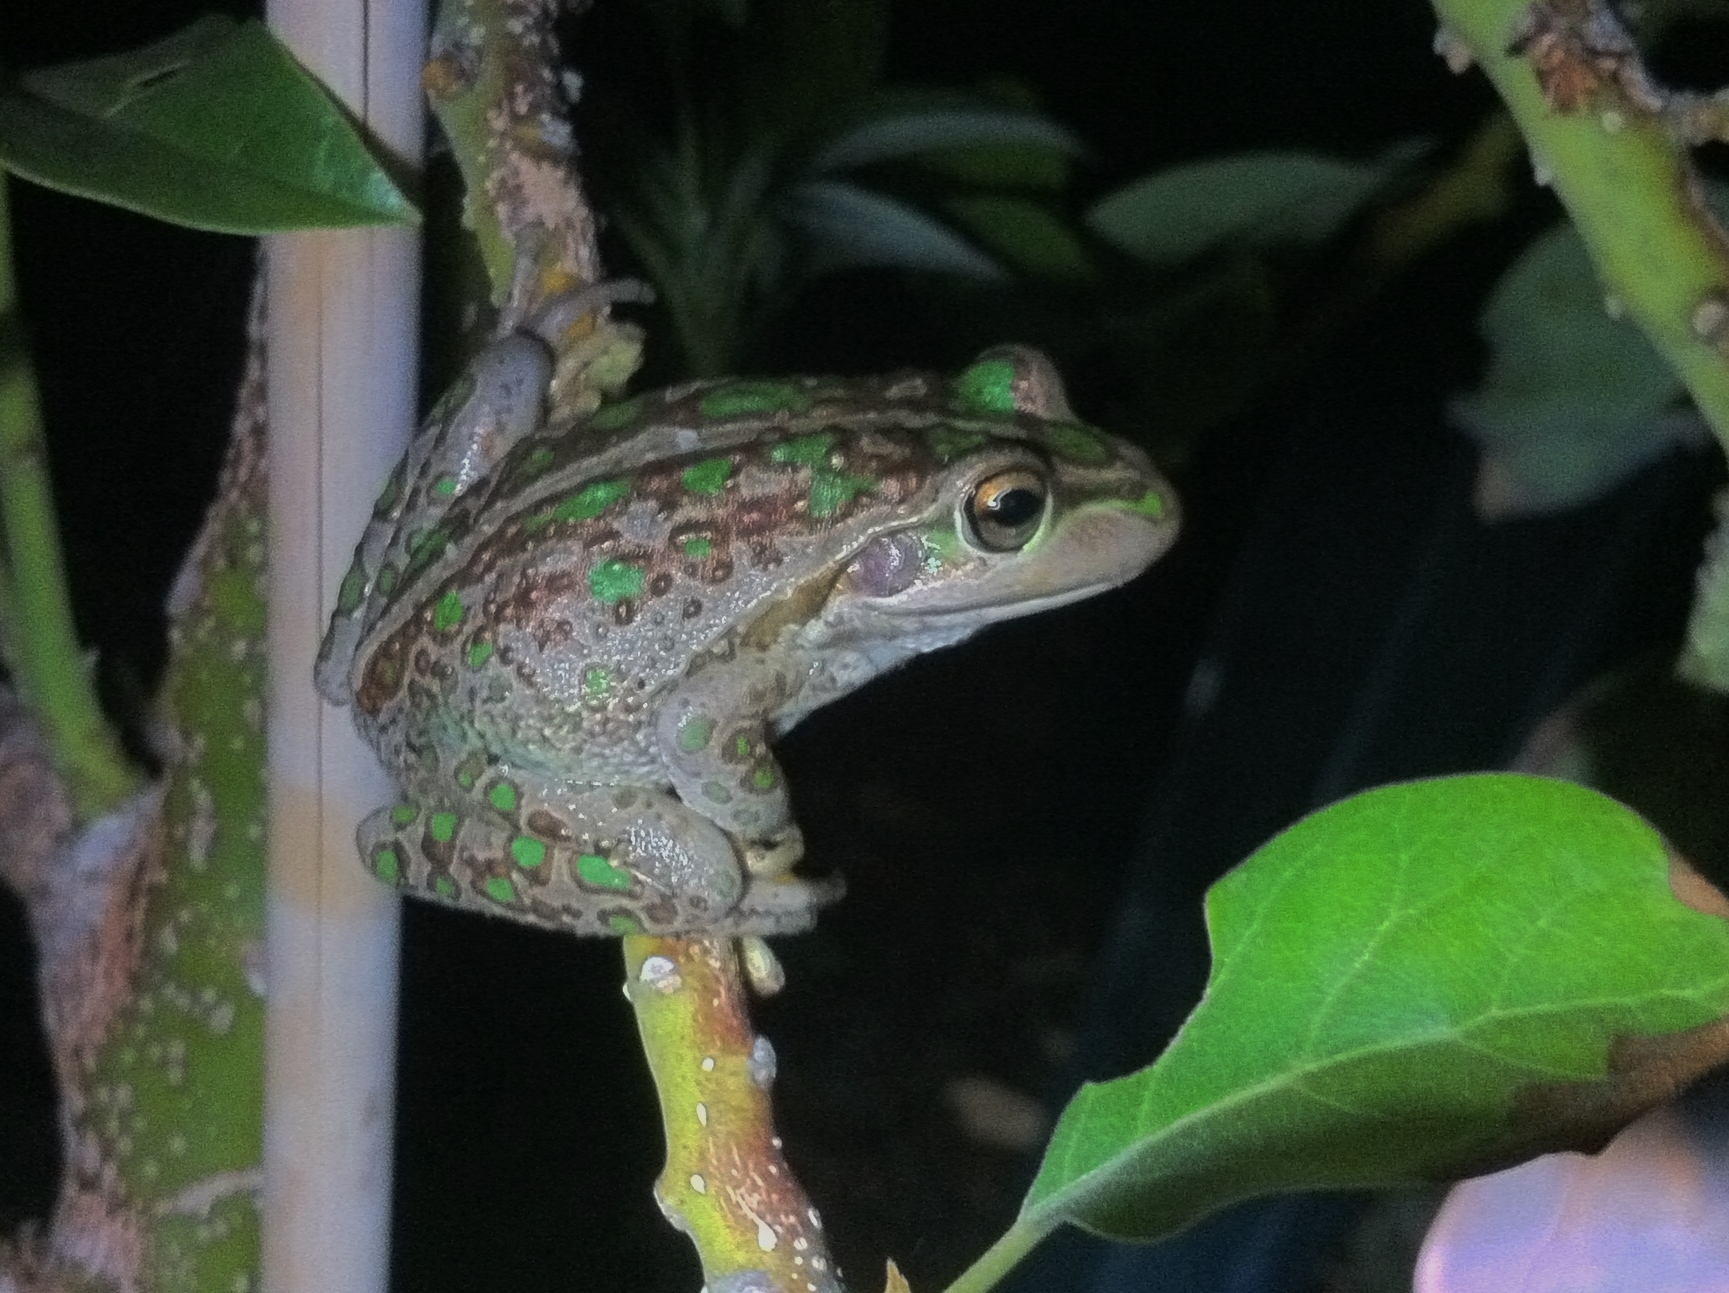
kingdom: Animalia
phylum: Chordata
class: Amphibia
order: Anura
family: Pelodryadidae
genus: Ranoidea
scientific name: Ranoidea moorei
